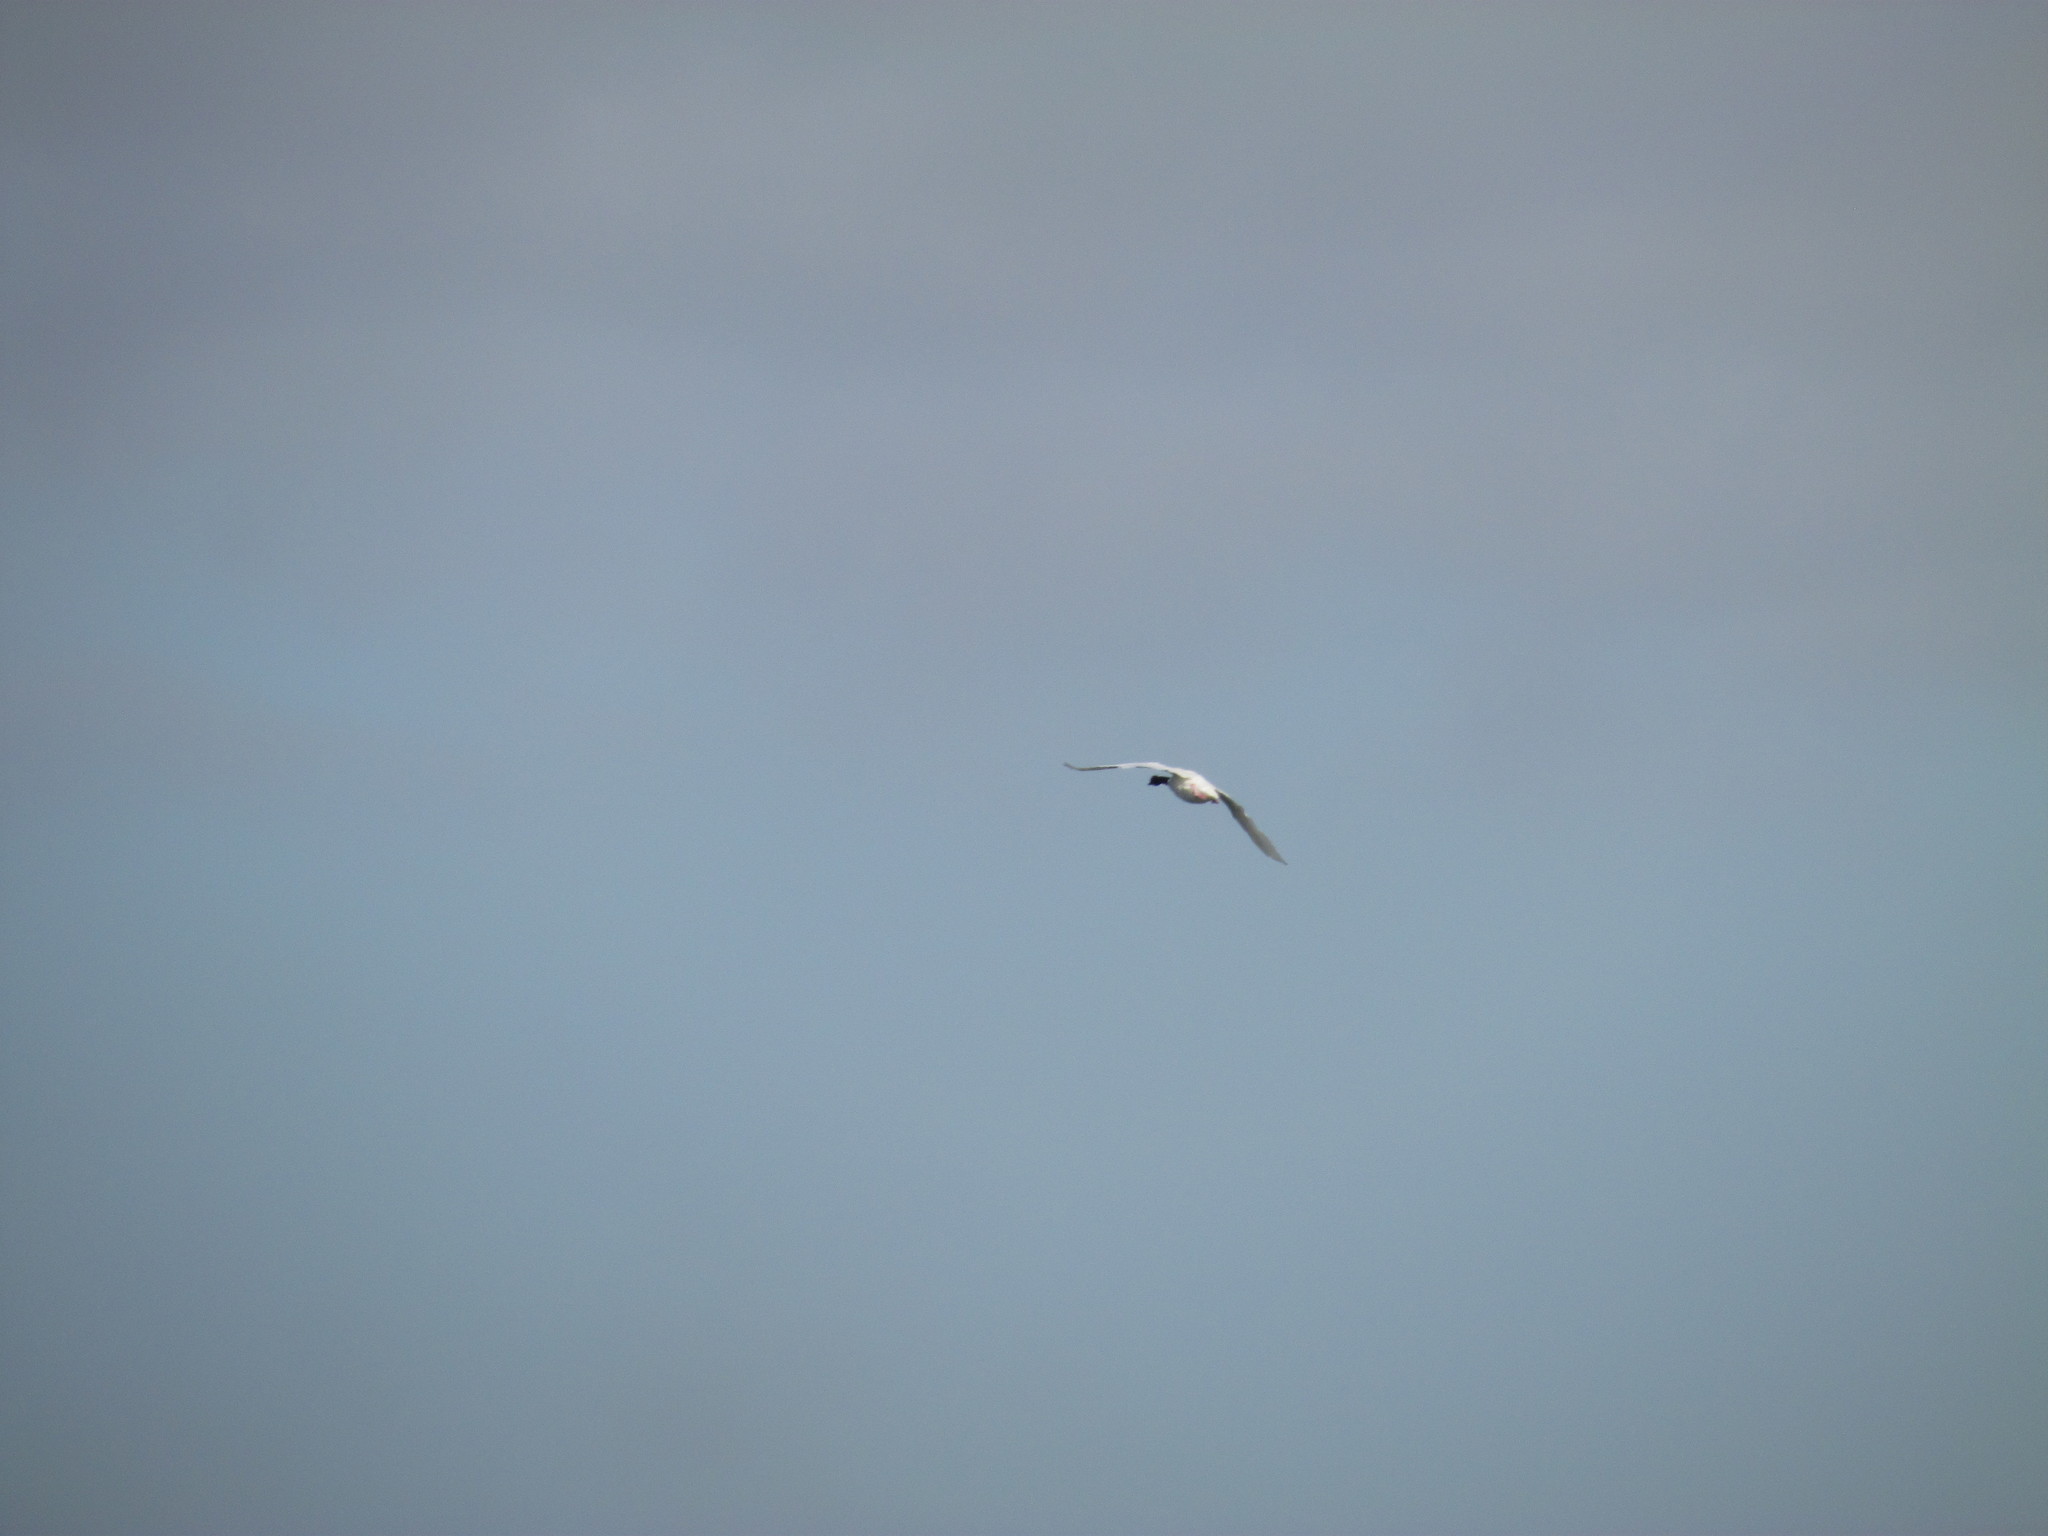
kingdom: Animalia
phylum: Chordata
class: Aves
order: Anseriformes
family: Anatidae
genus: Cygnus
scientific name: Cygnus melancoryphus
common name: Black-necked swan
